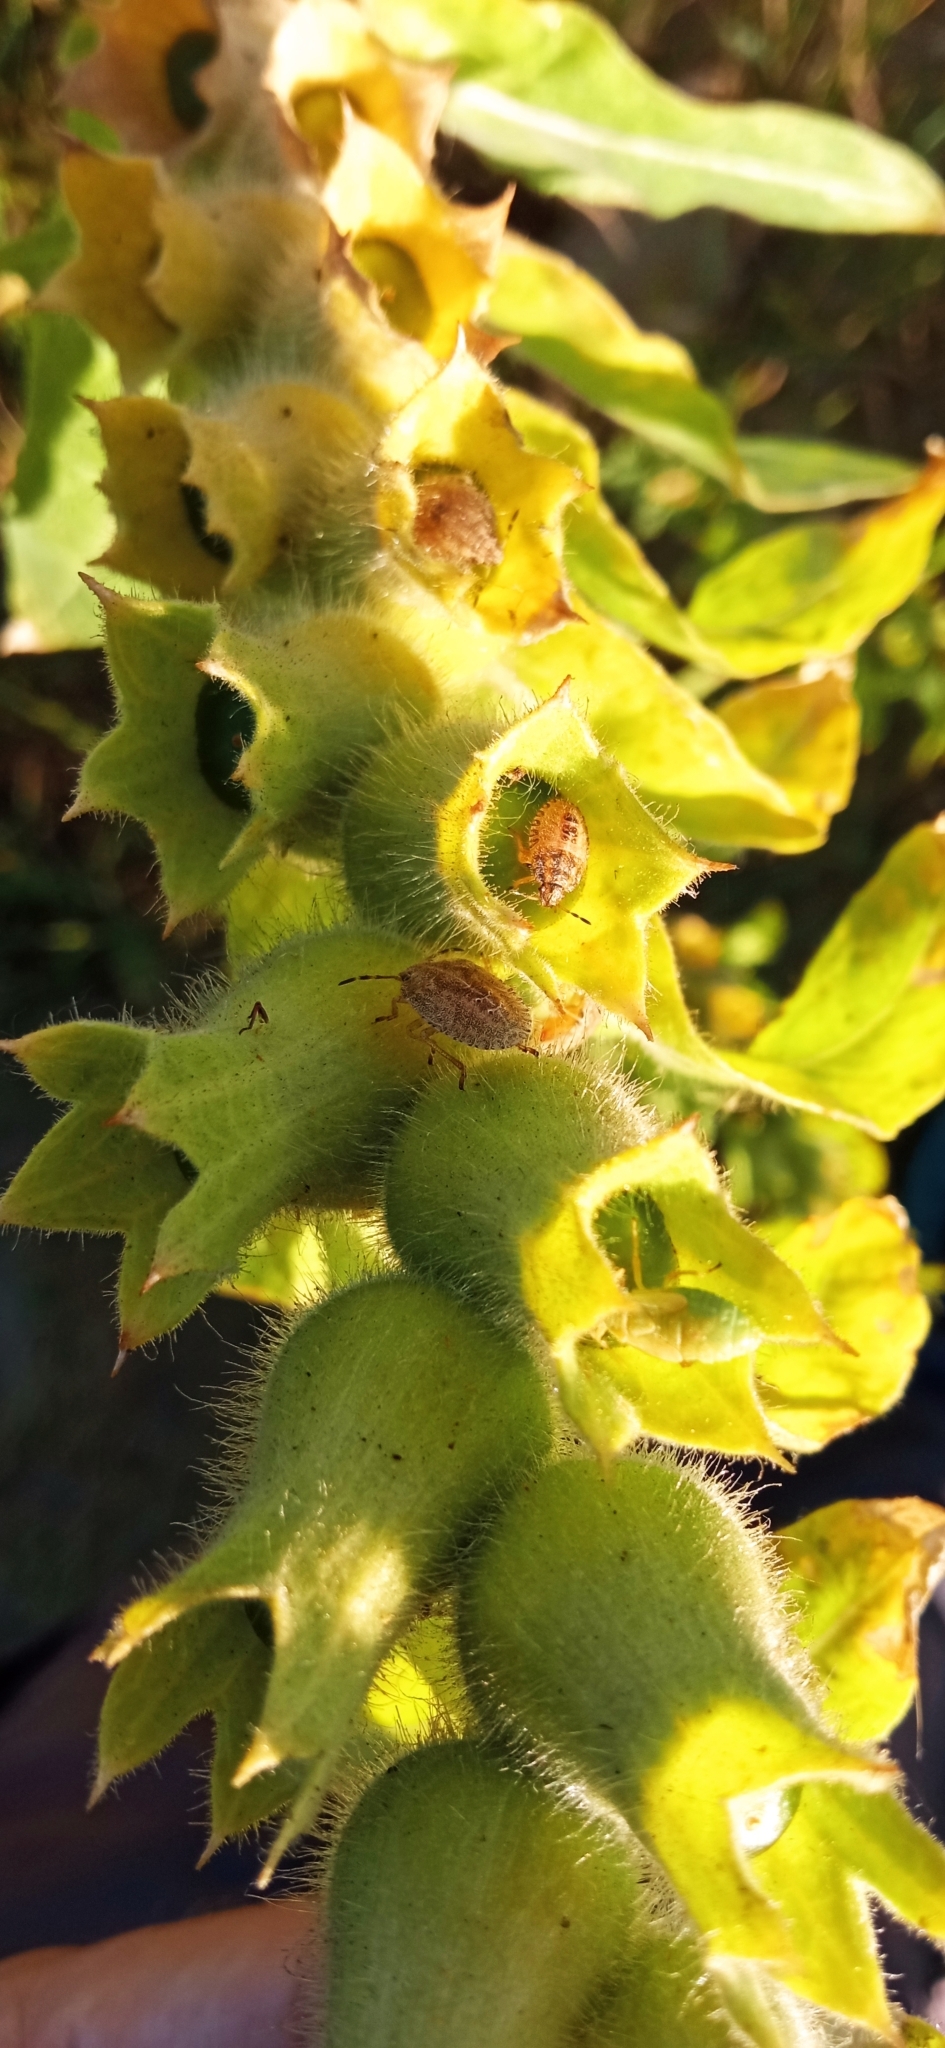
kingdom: Animalia
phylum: Arthropoda
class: Insecta
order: Hemiptera
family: Pentatomidae
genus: Dolycoris
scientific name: Dolycoris baccarum
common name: Sloe bug
